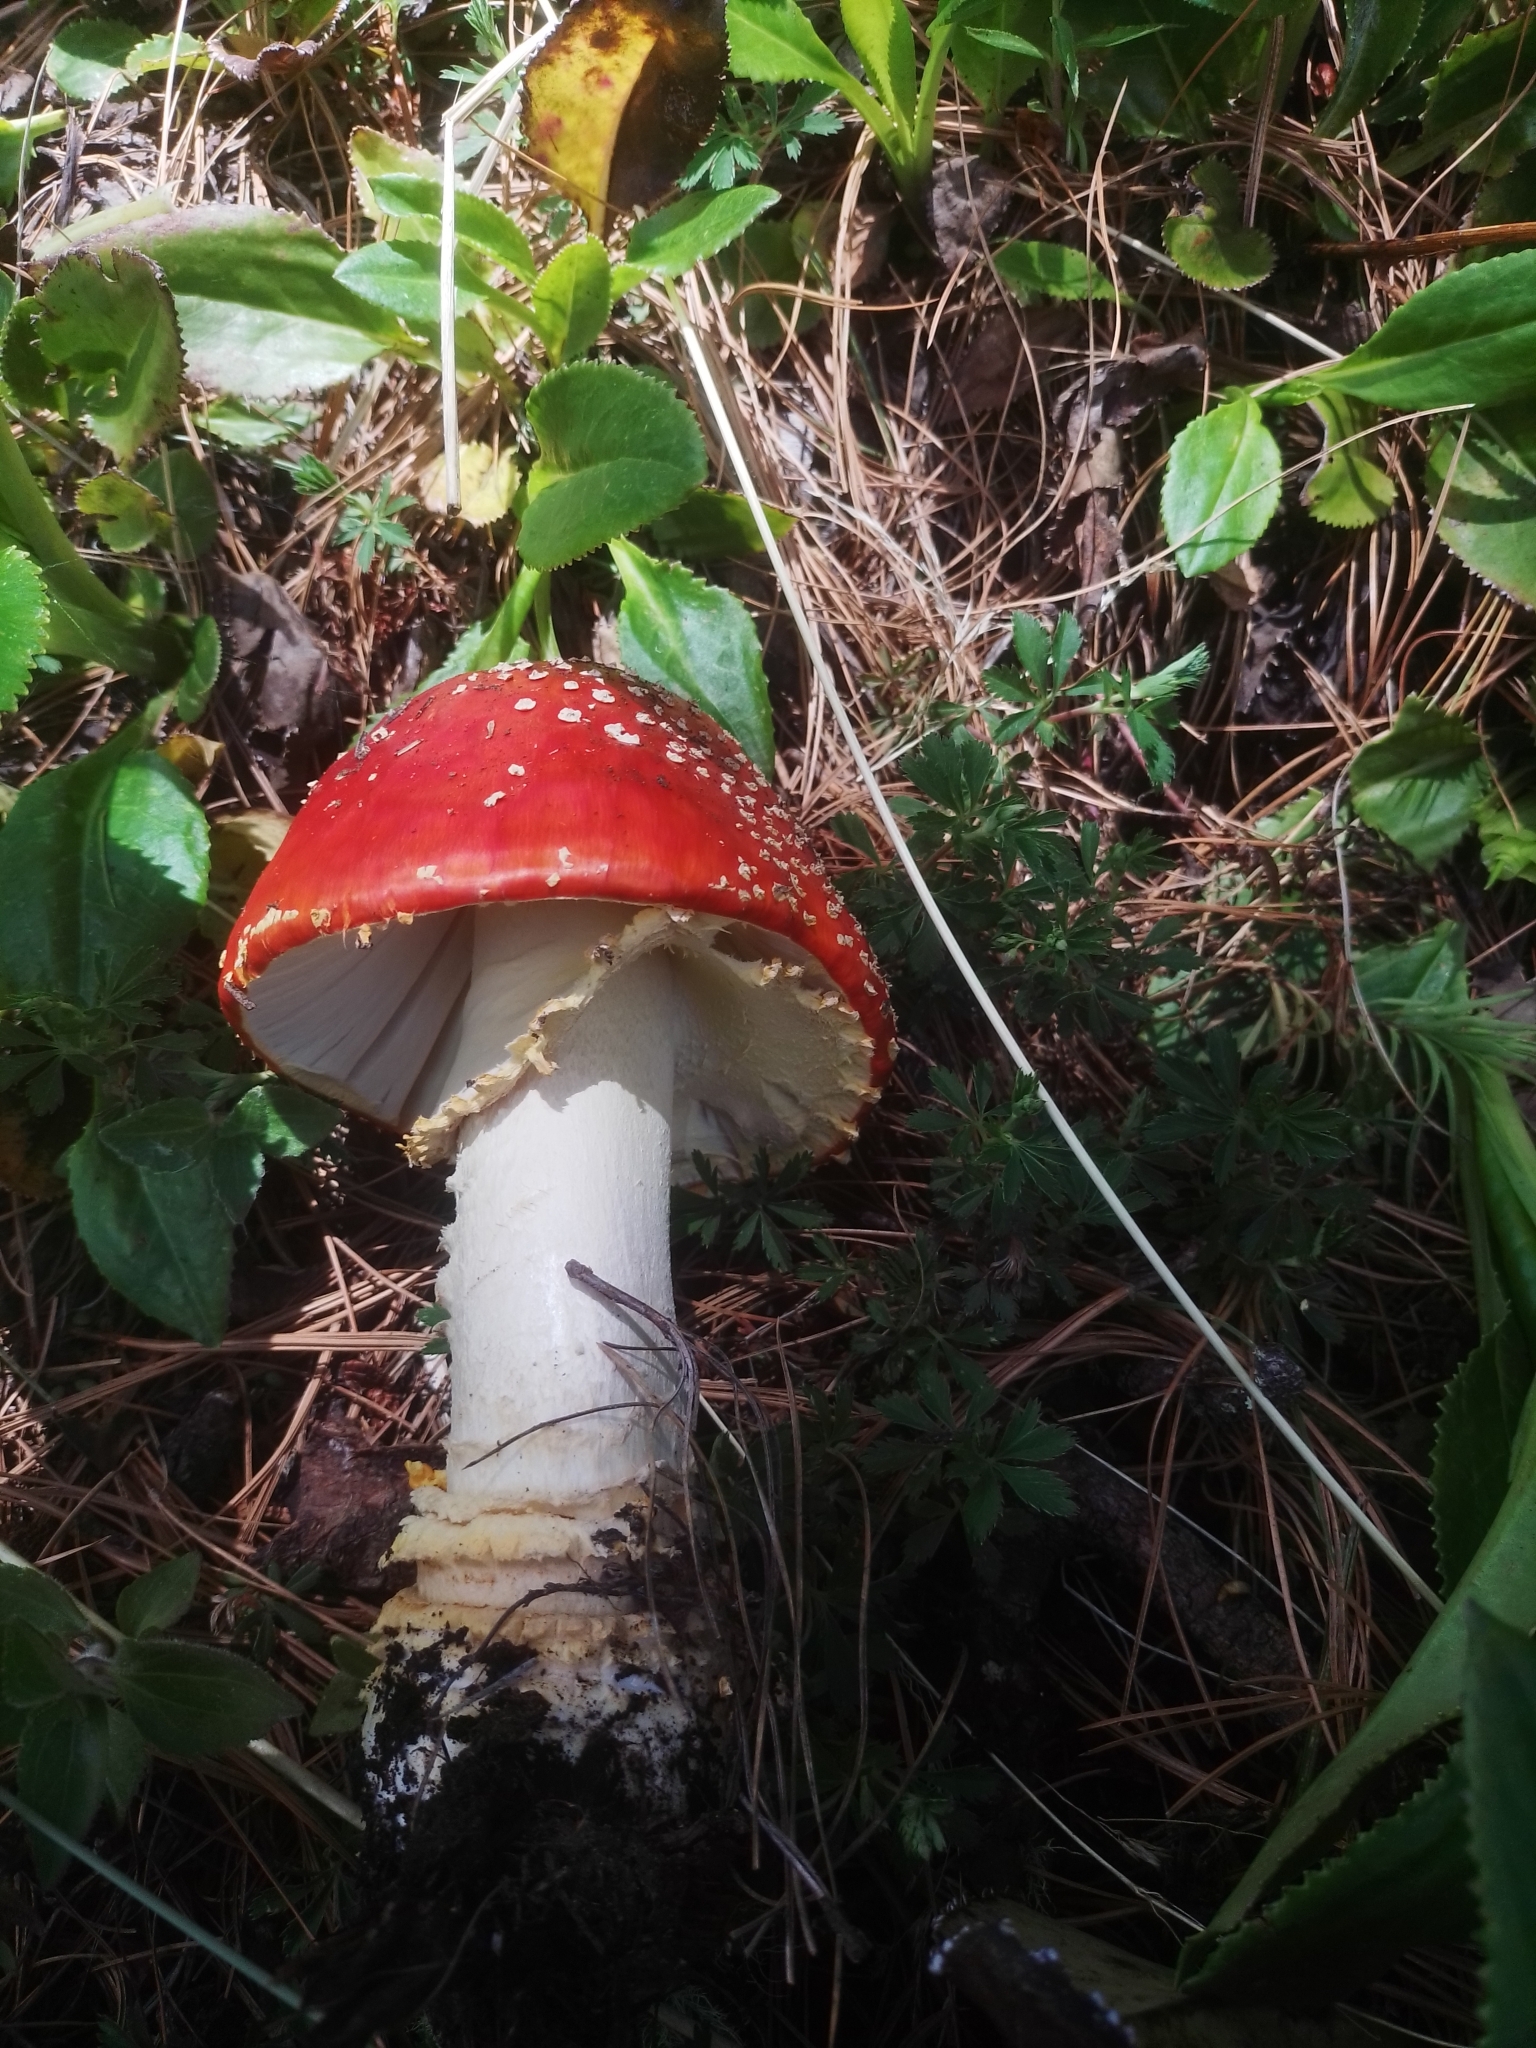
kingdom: Fungi
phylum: Basidiomycota
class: Agaricomycetes
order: Agaricales
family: Amanitaceae
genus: Amanita
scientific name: Amanita muscaria
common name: Fly agaric
